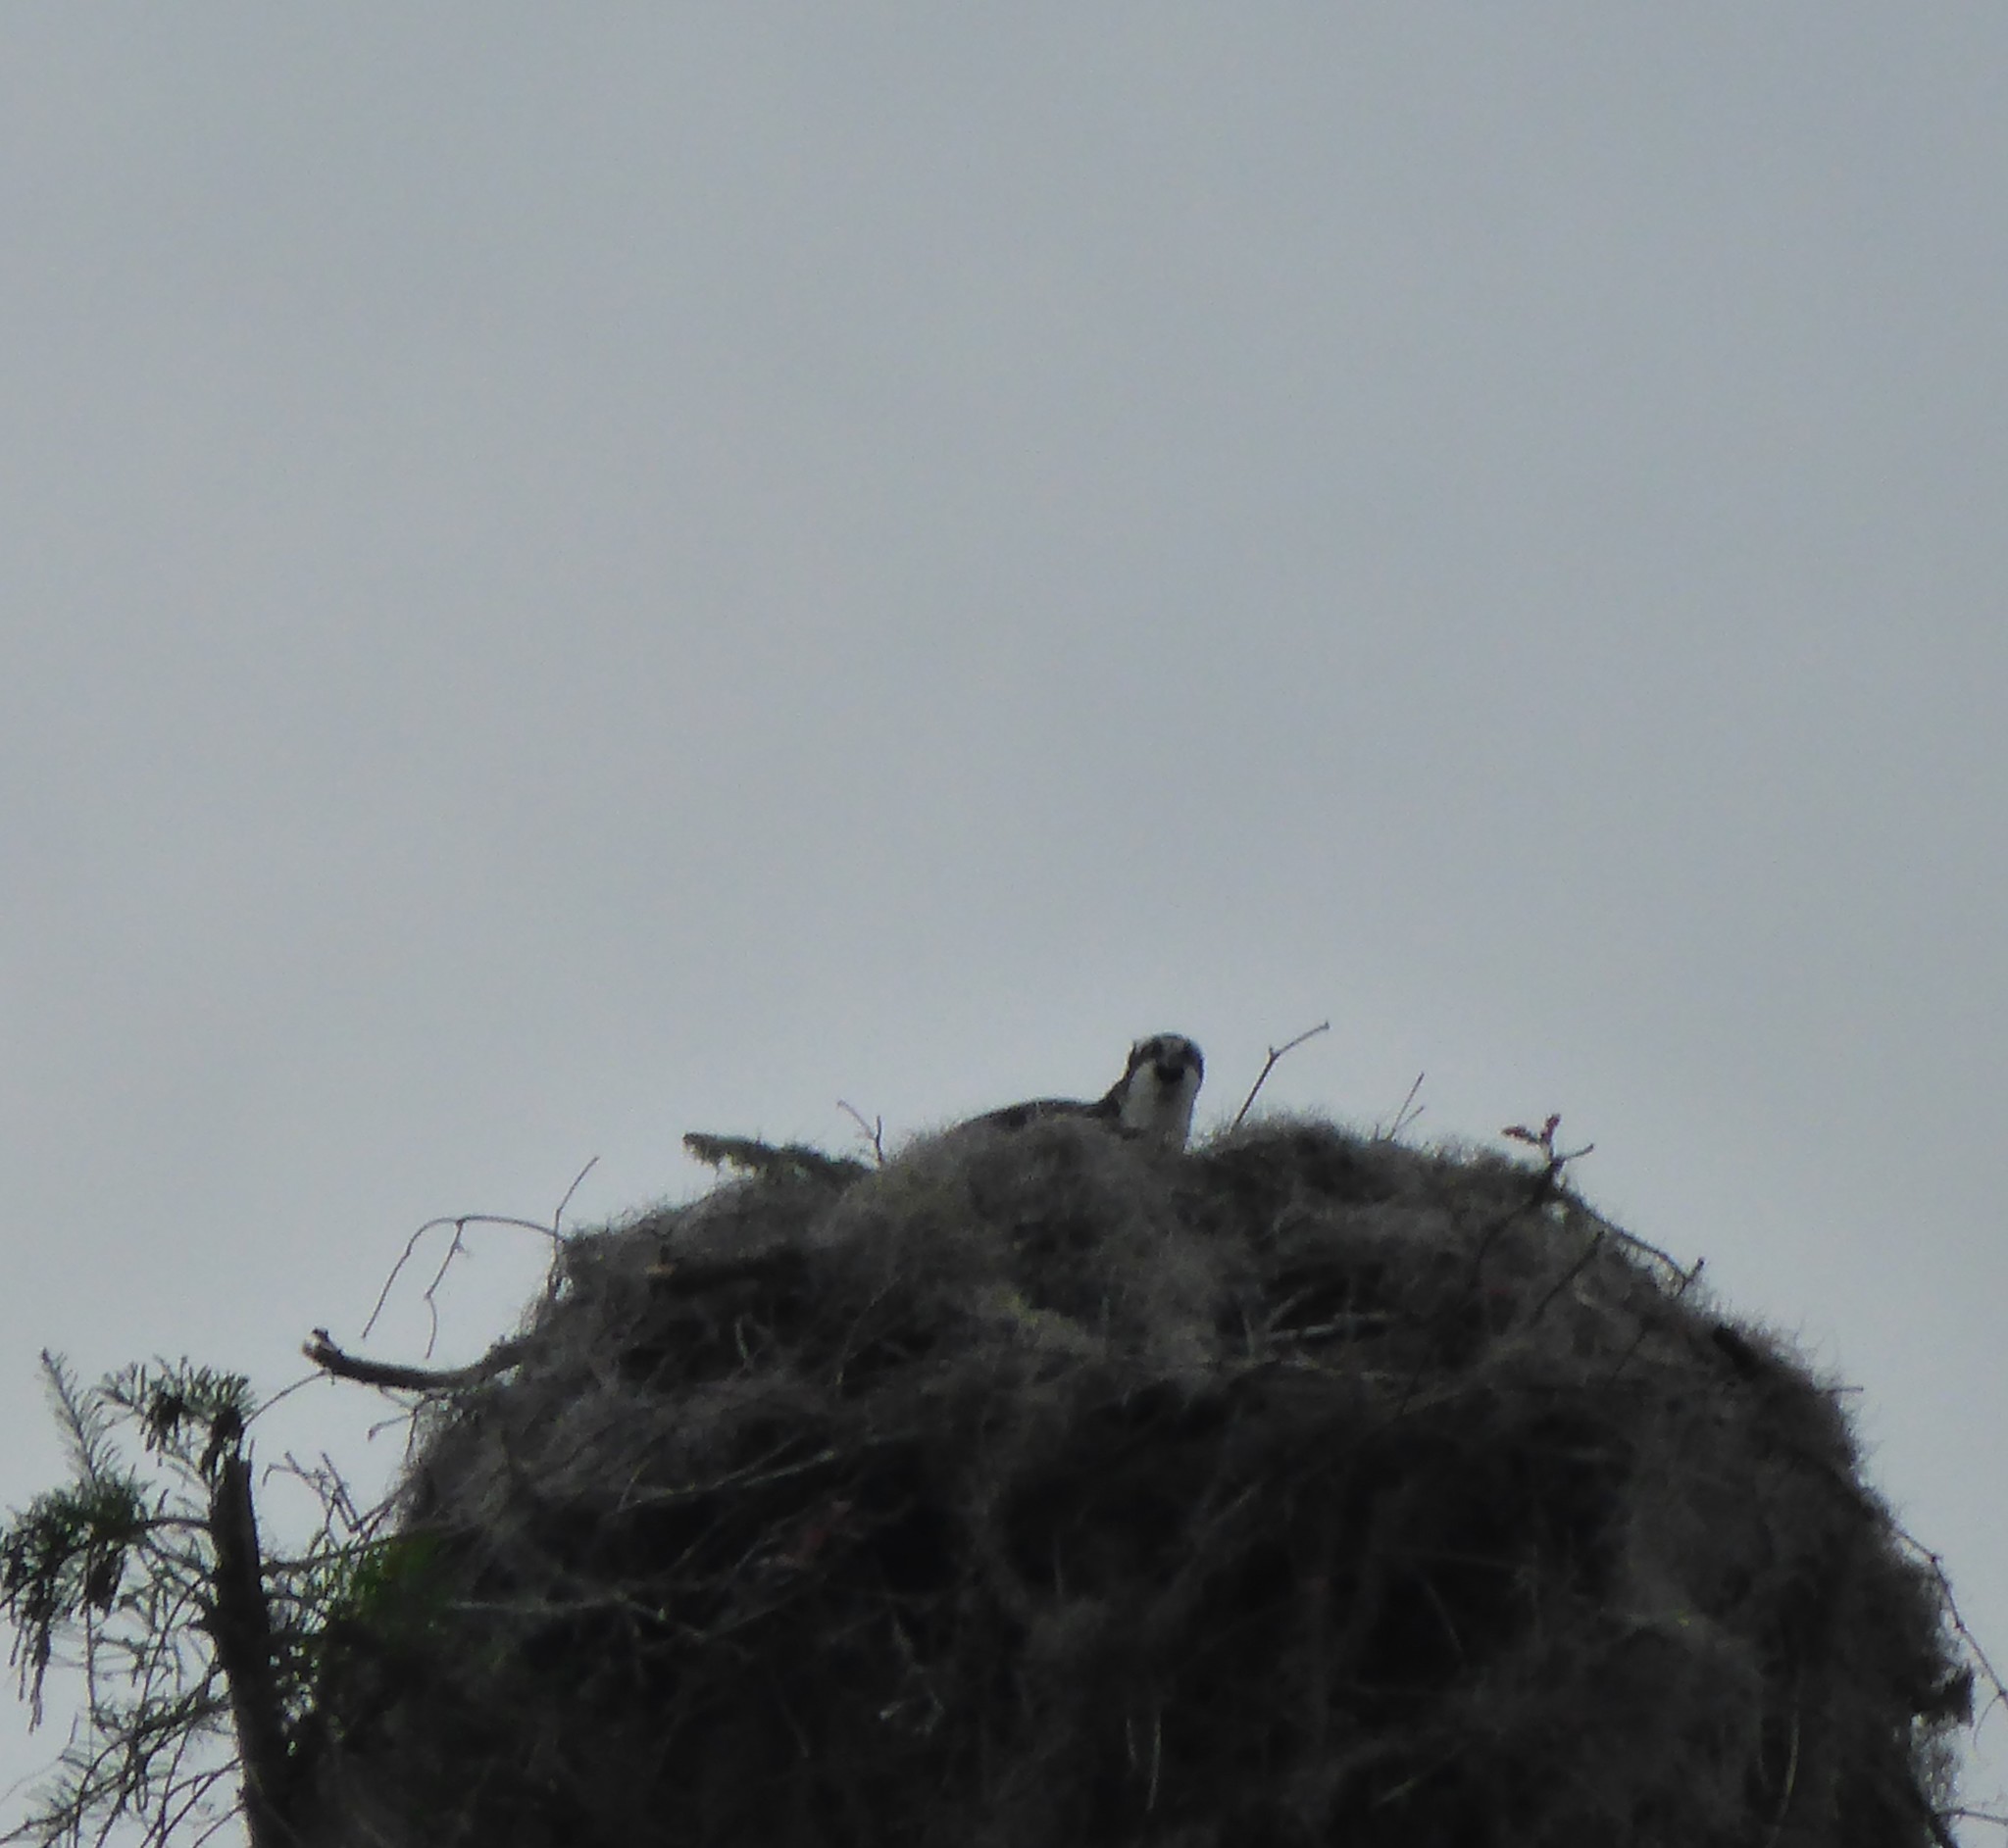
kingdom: Animalia
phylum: Chordata
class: Aves
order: Accipitriformes
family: Pandionidae
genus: Pandion
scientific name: Pandion haliaetus
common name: Osprey
